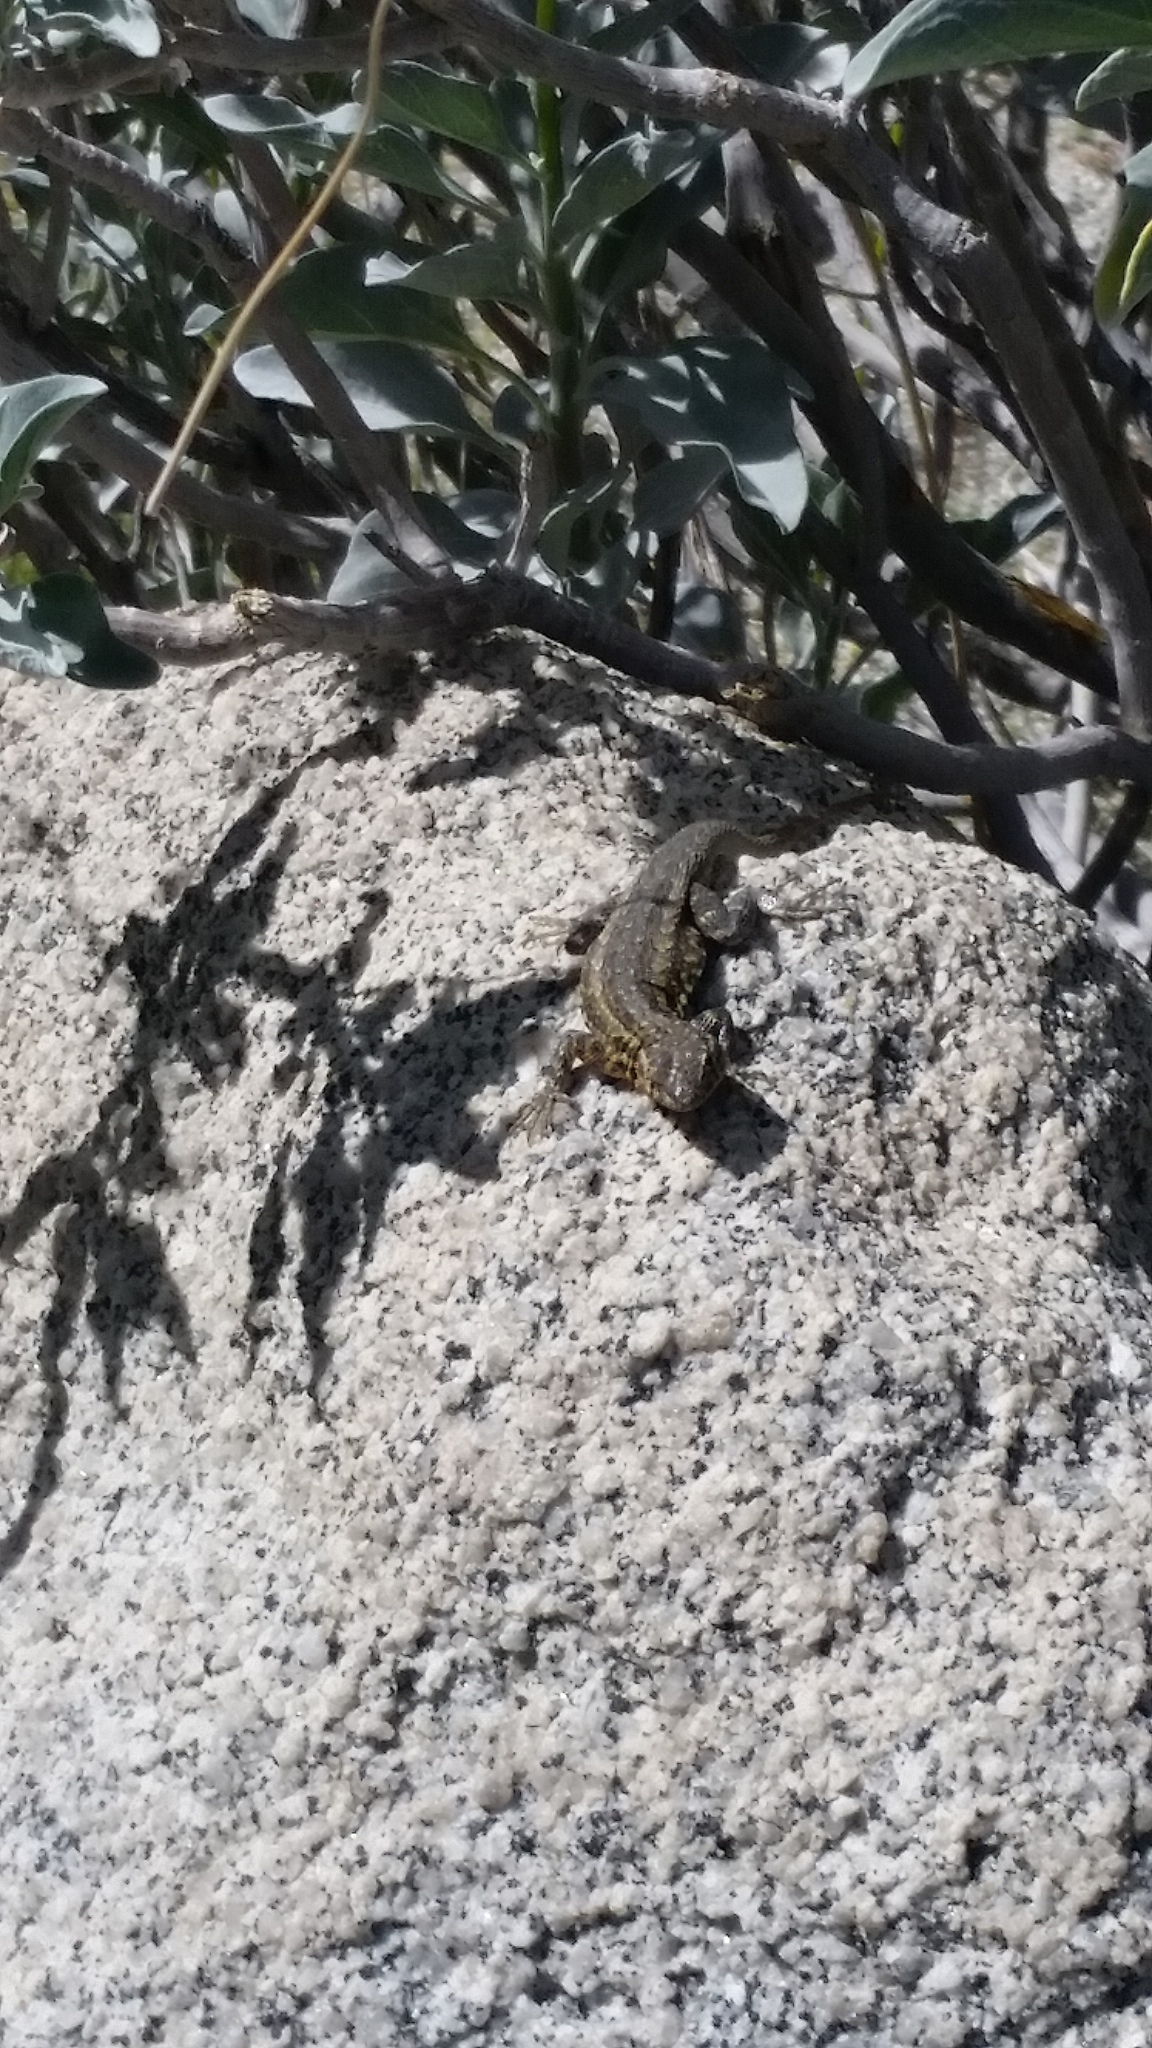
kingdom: Animalia
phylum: Chordata
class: Squamata
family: Phrynosomatidae
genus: Uta
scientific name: Uta stansburiana
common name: Side-blotched lizard
